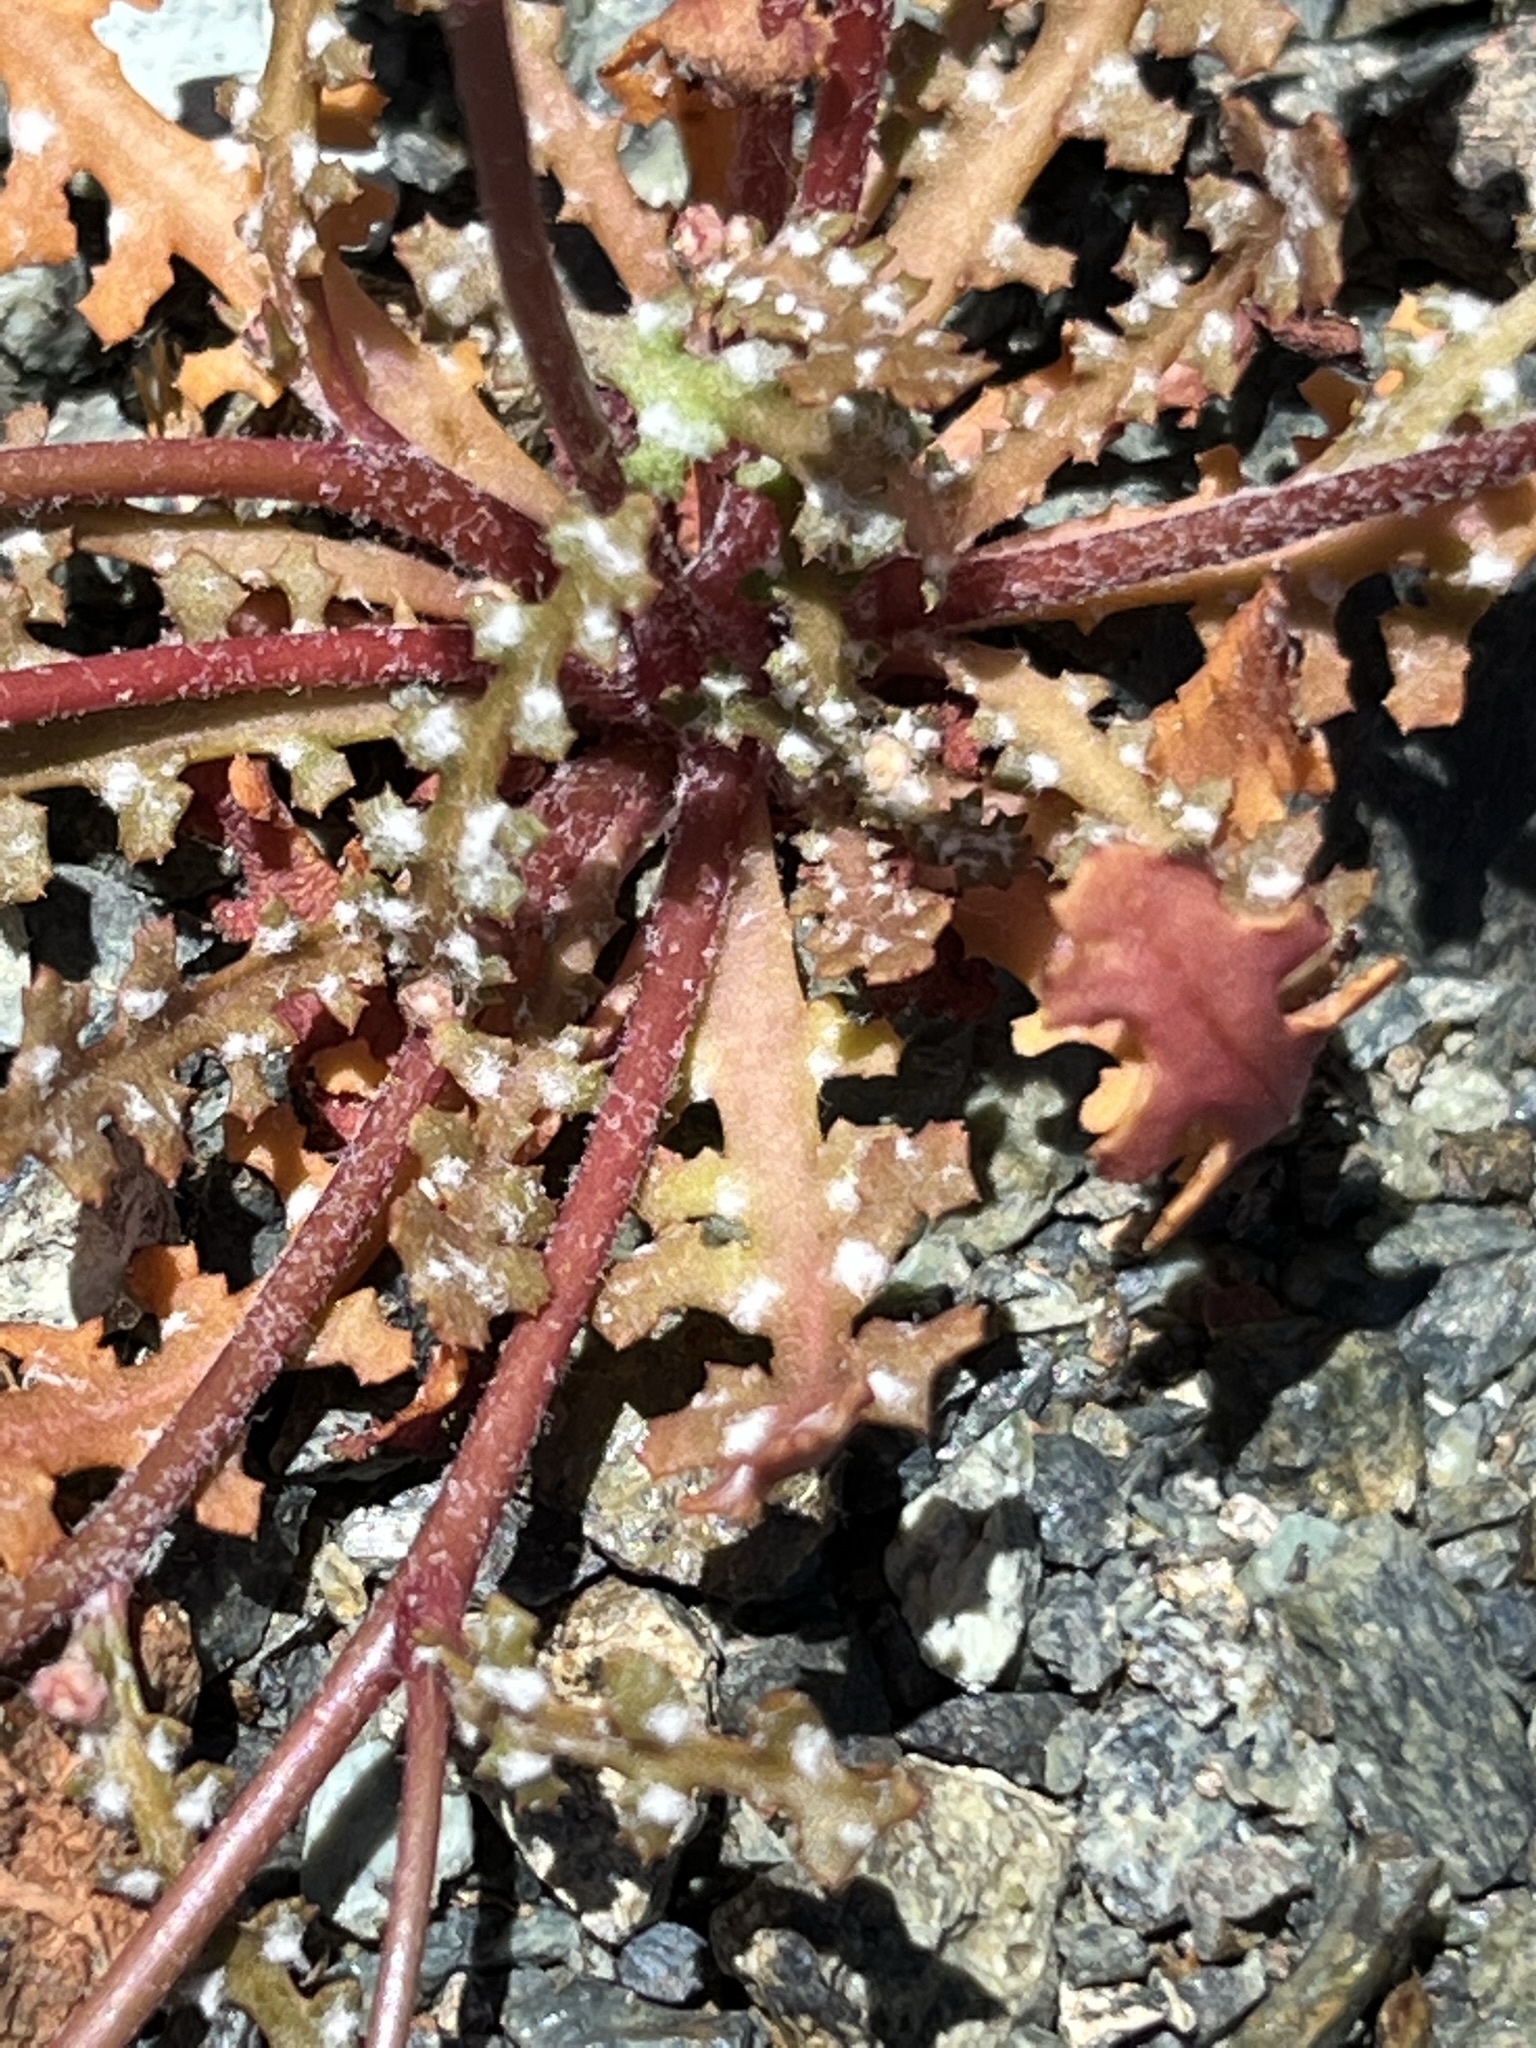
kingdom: Plantae
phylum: Tracheophyta
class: Magnoliopsida
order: Asterales
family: Asteraceae
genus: Malacothrix
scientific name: Malacothrix floccifera
